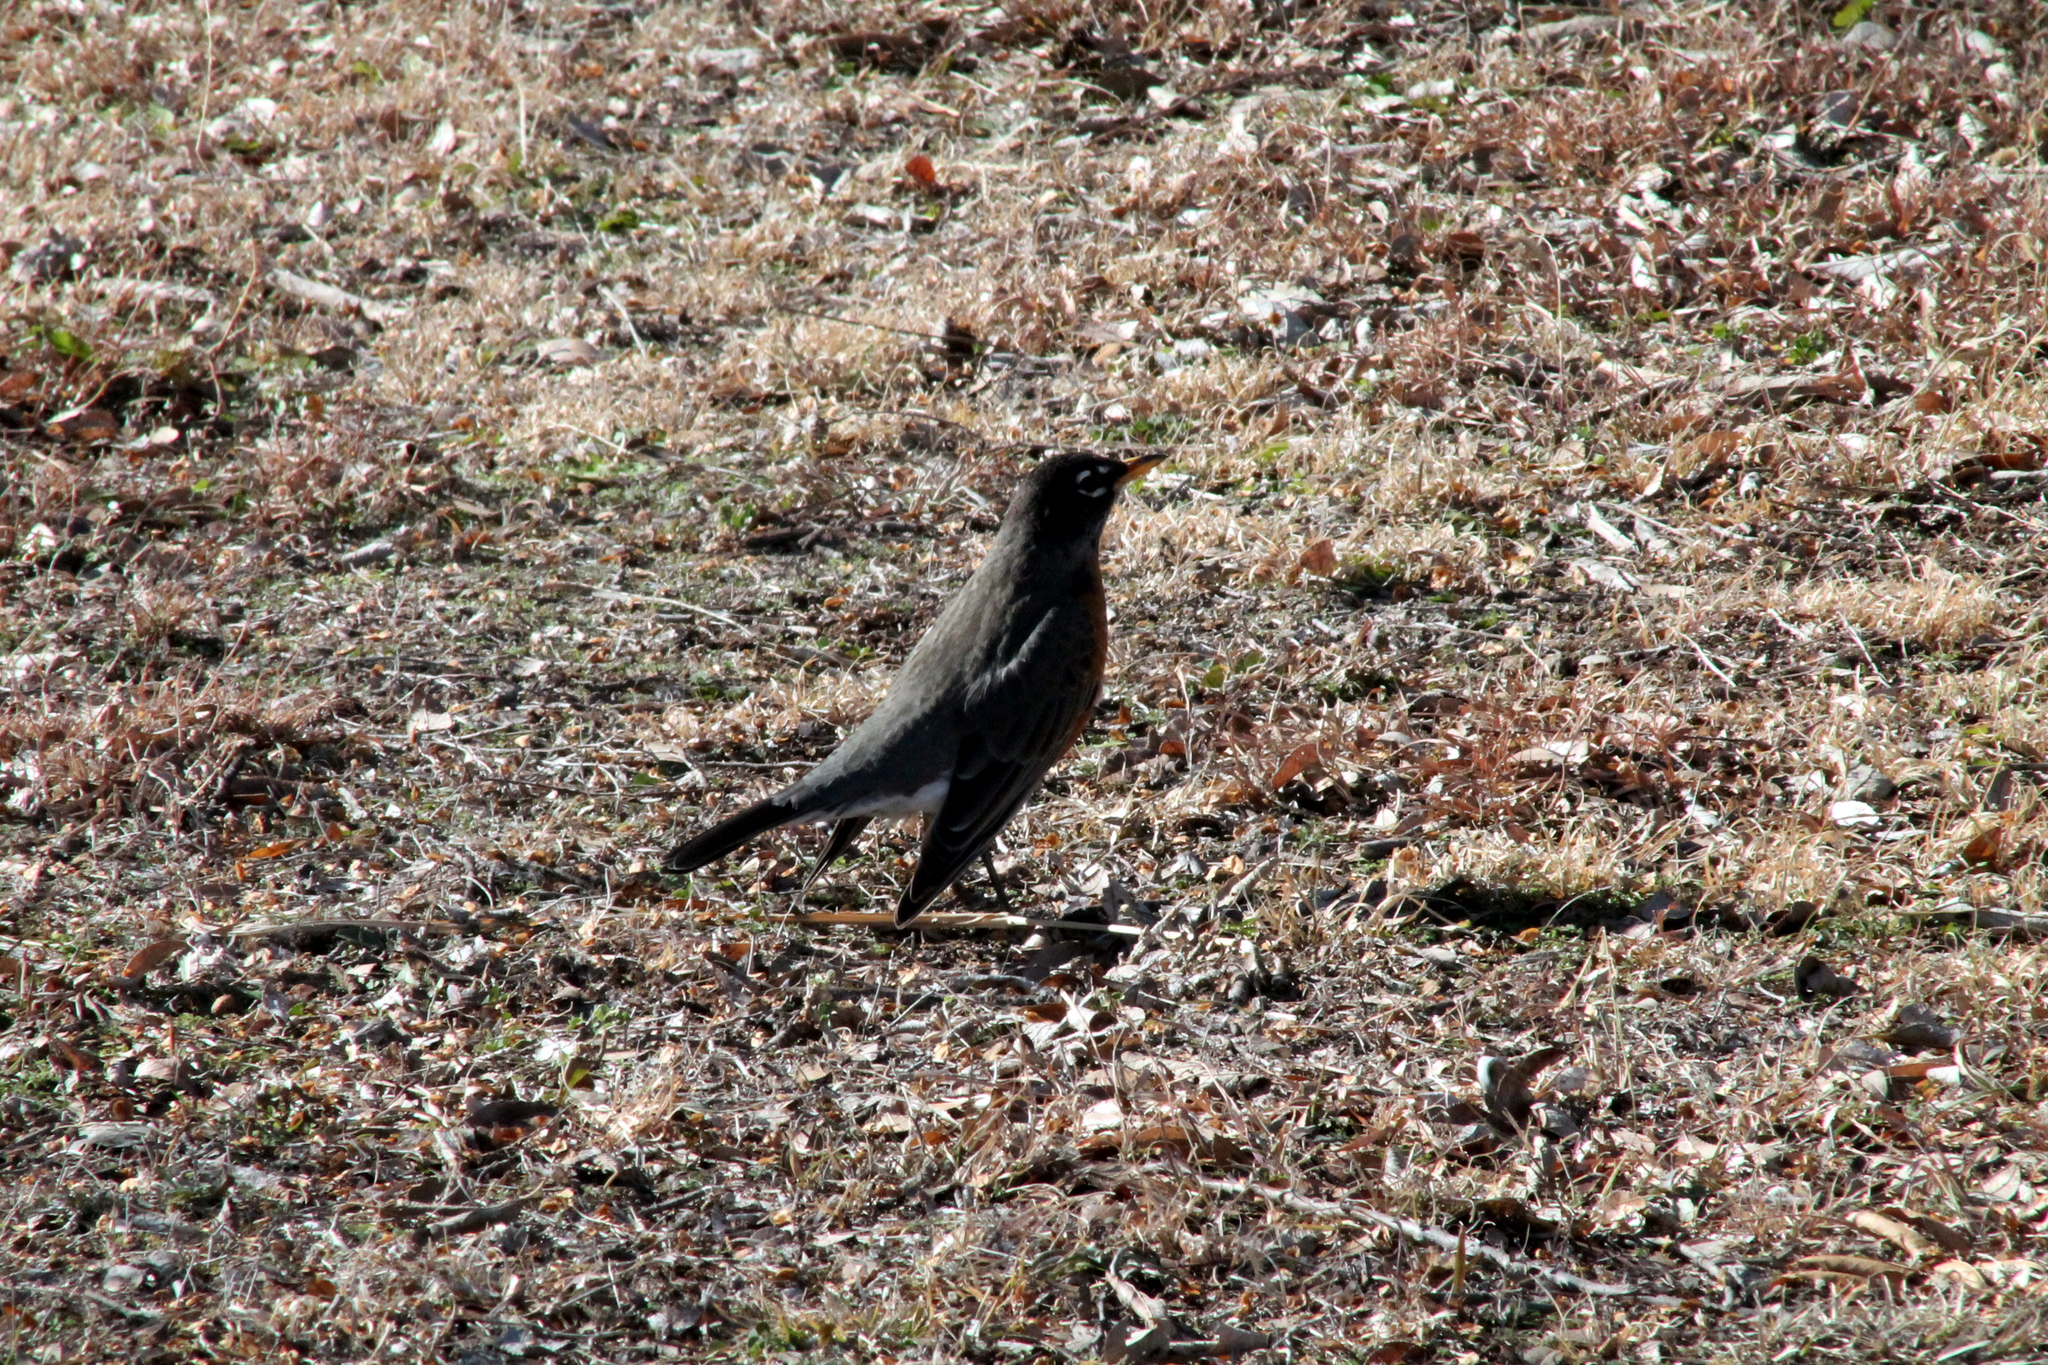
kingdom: Animalia
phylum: Chordata
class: Aves
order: Passeriformes
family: Turdidae
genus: Turdus
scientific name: Turdus migratorius
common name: American robin
